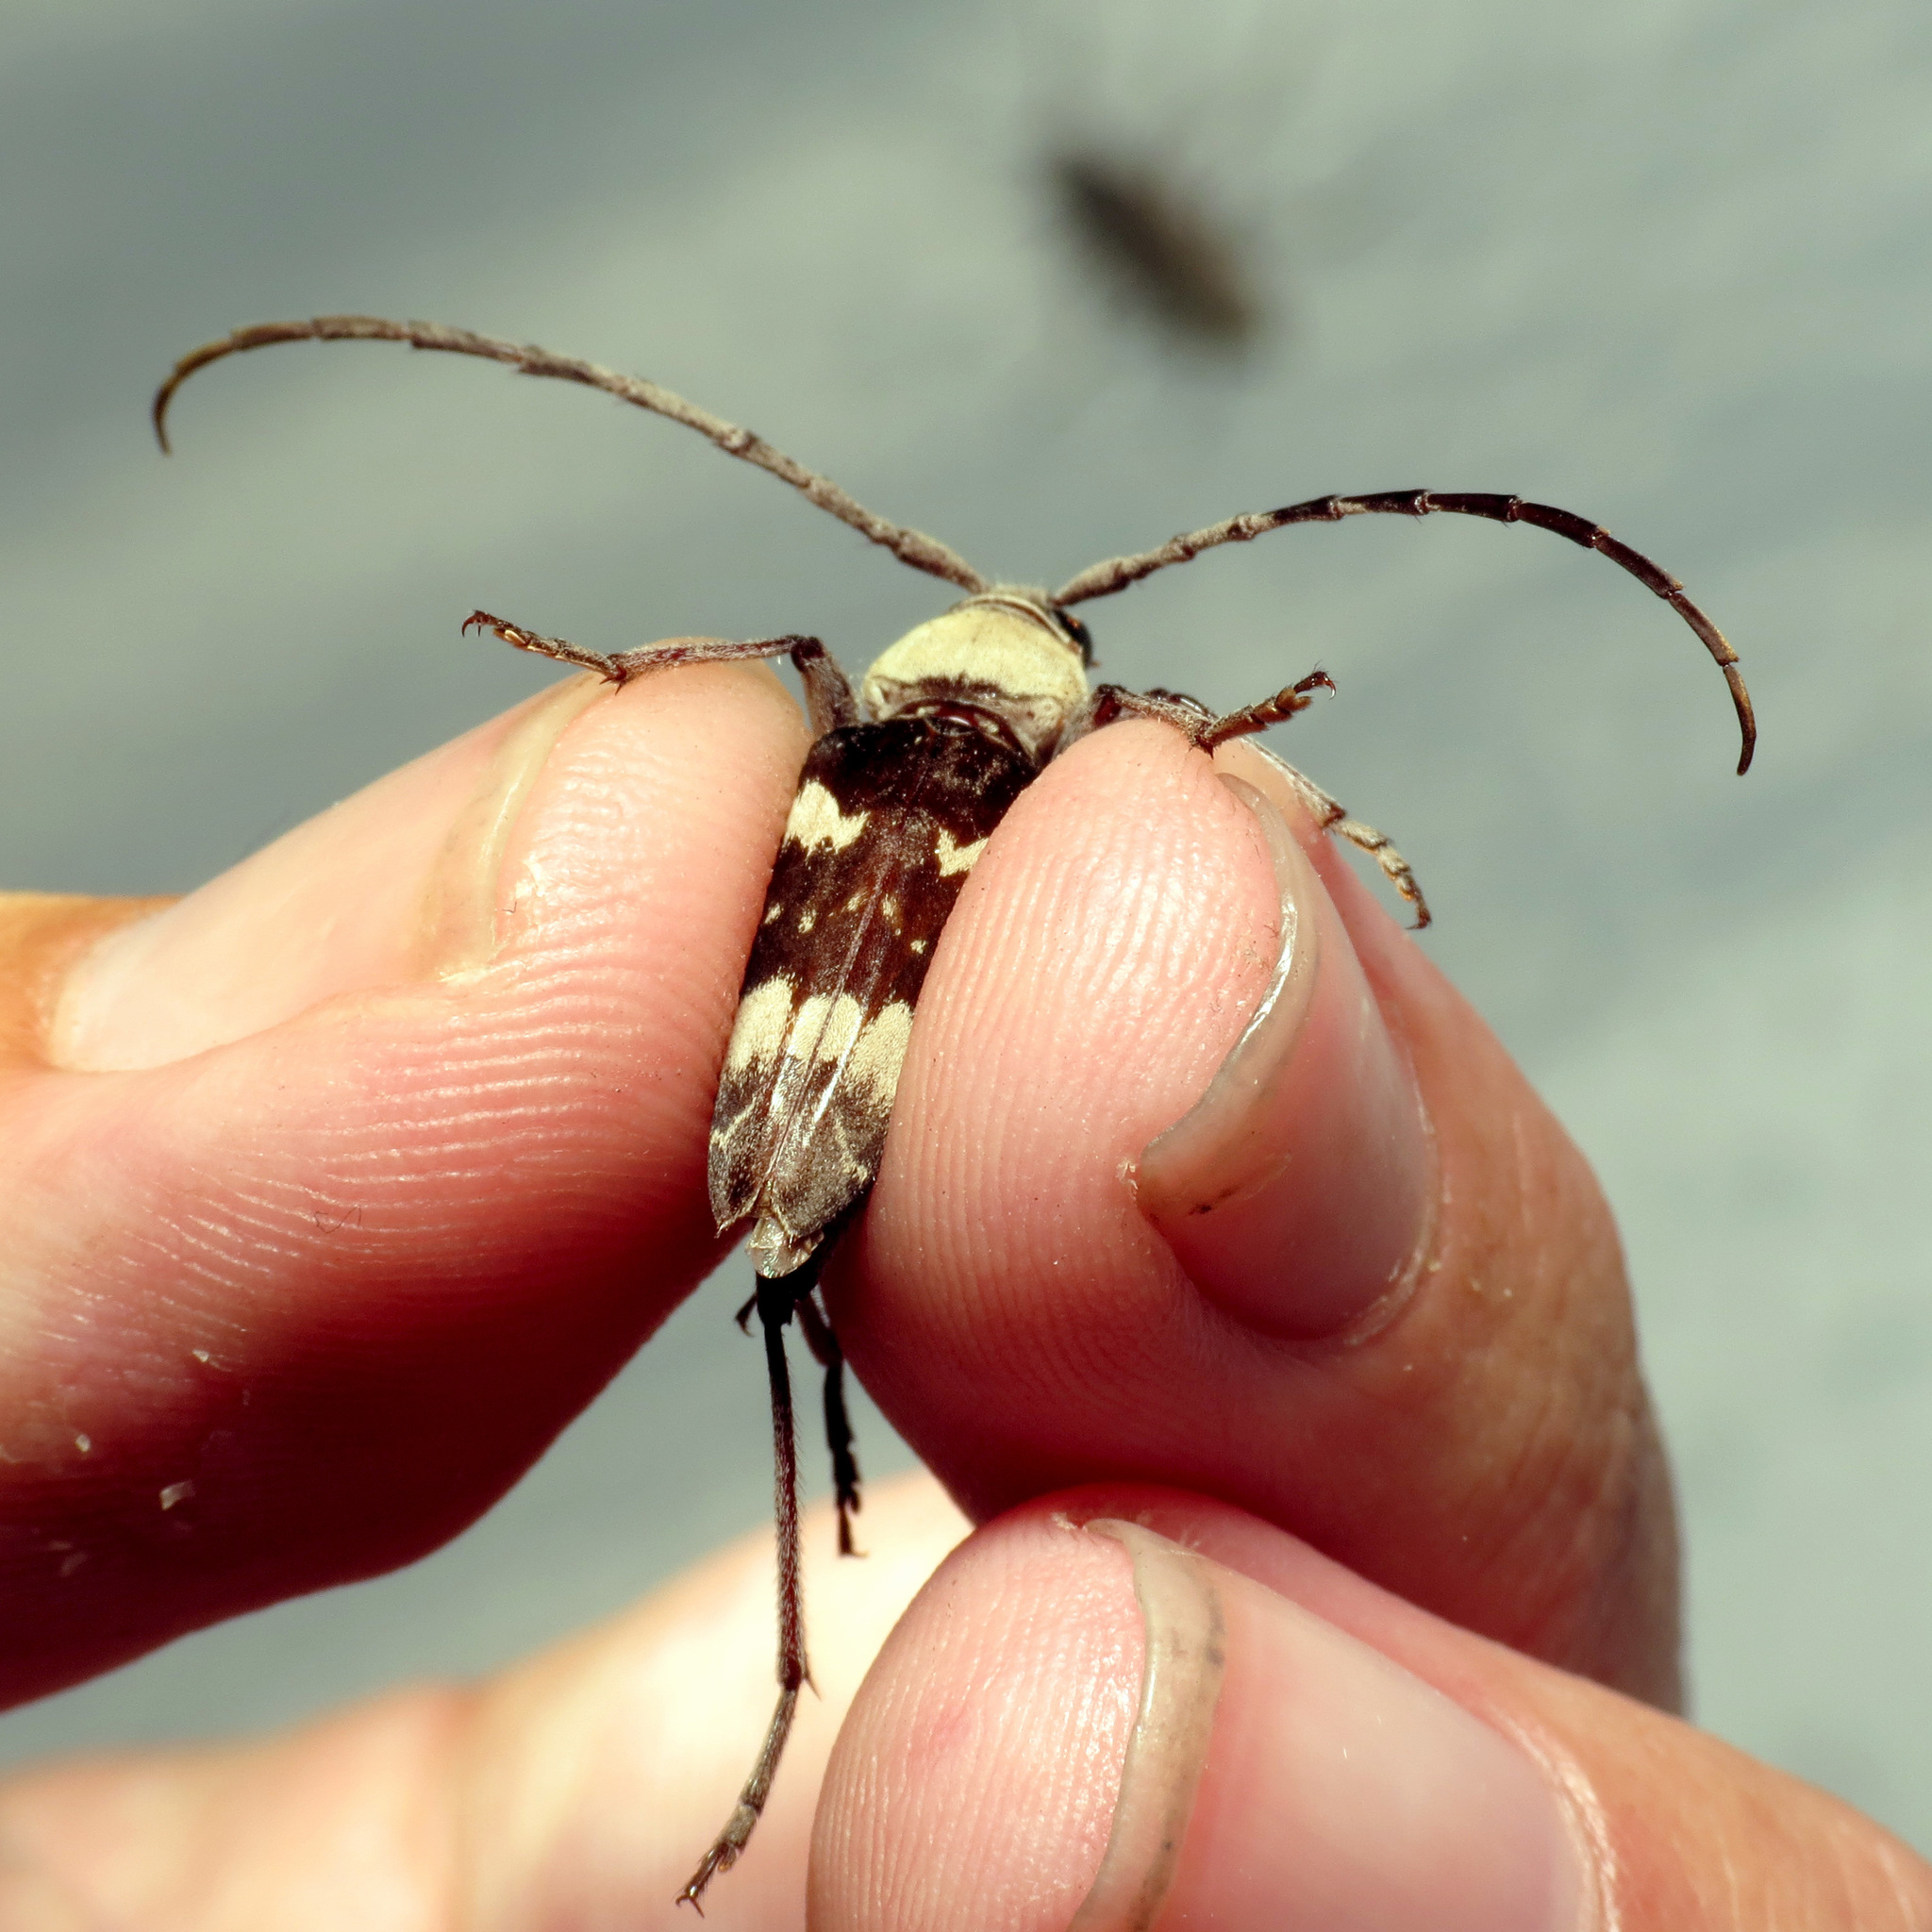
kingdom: Animalia
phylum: Arthropoda
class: Insecta
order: Coleoptera
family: Cerambycidae
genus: Megacyllene
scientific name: Megacyllene antennata
